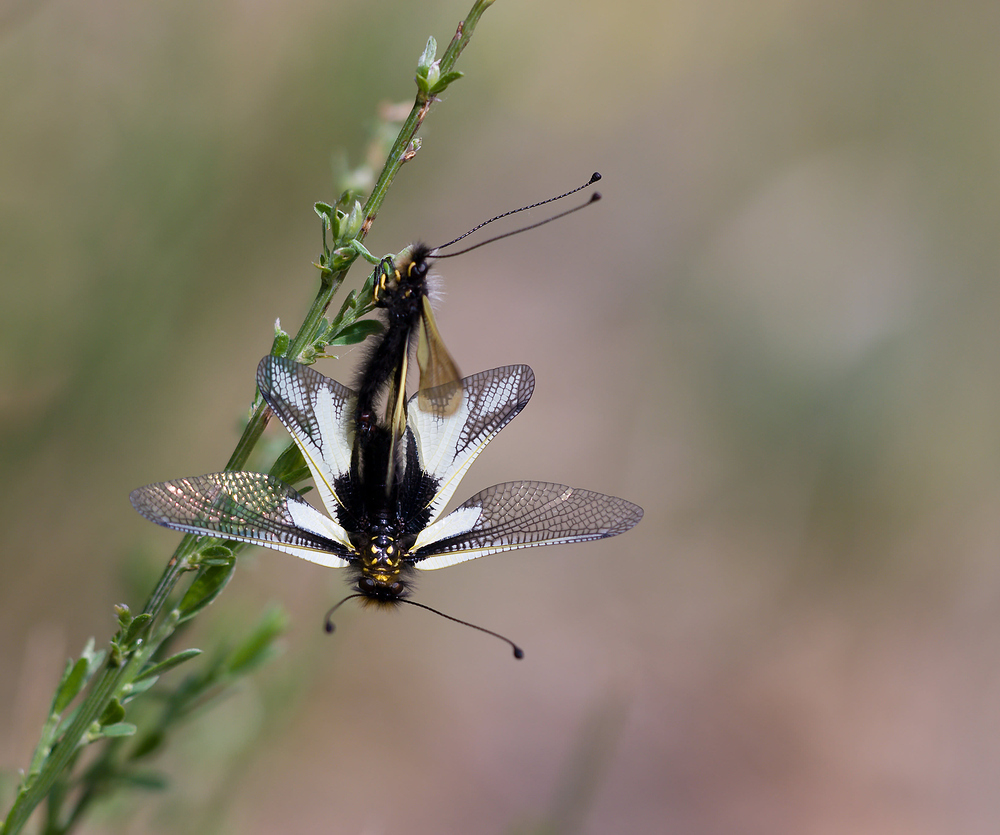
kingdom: Animalia
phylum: Arthropoda
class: Insecta
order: Neuroptera
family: Ascalaphidae
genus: Libelloides
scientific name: Libelloides coccajus
